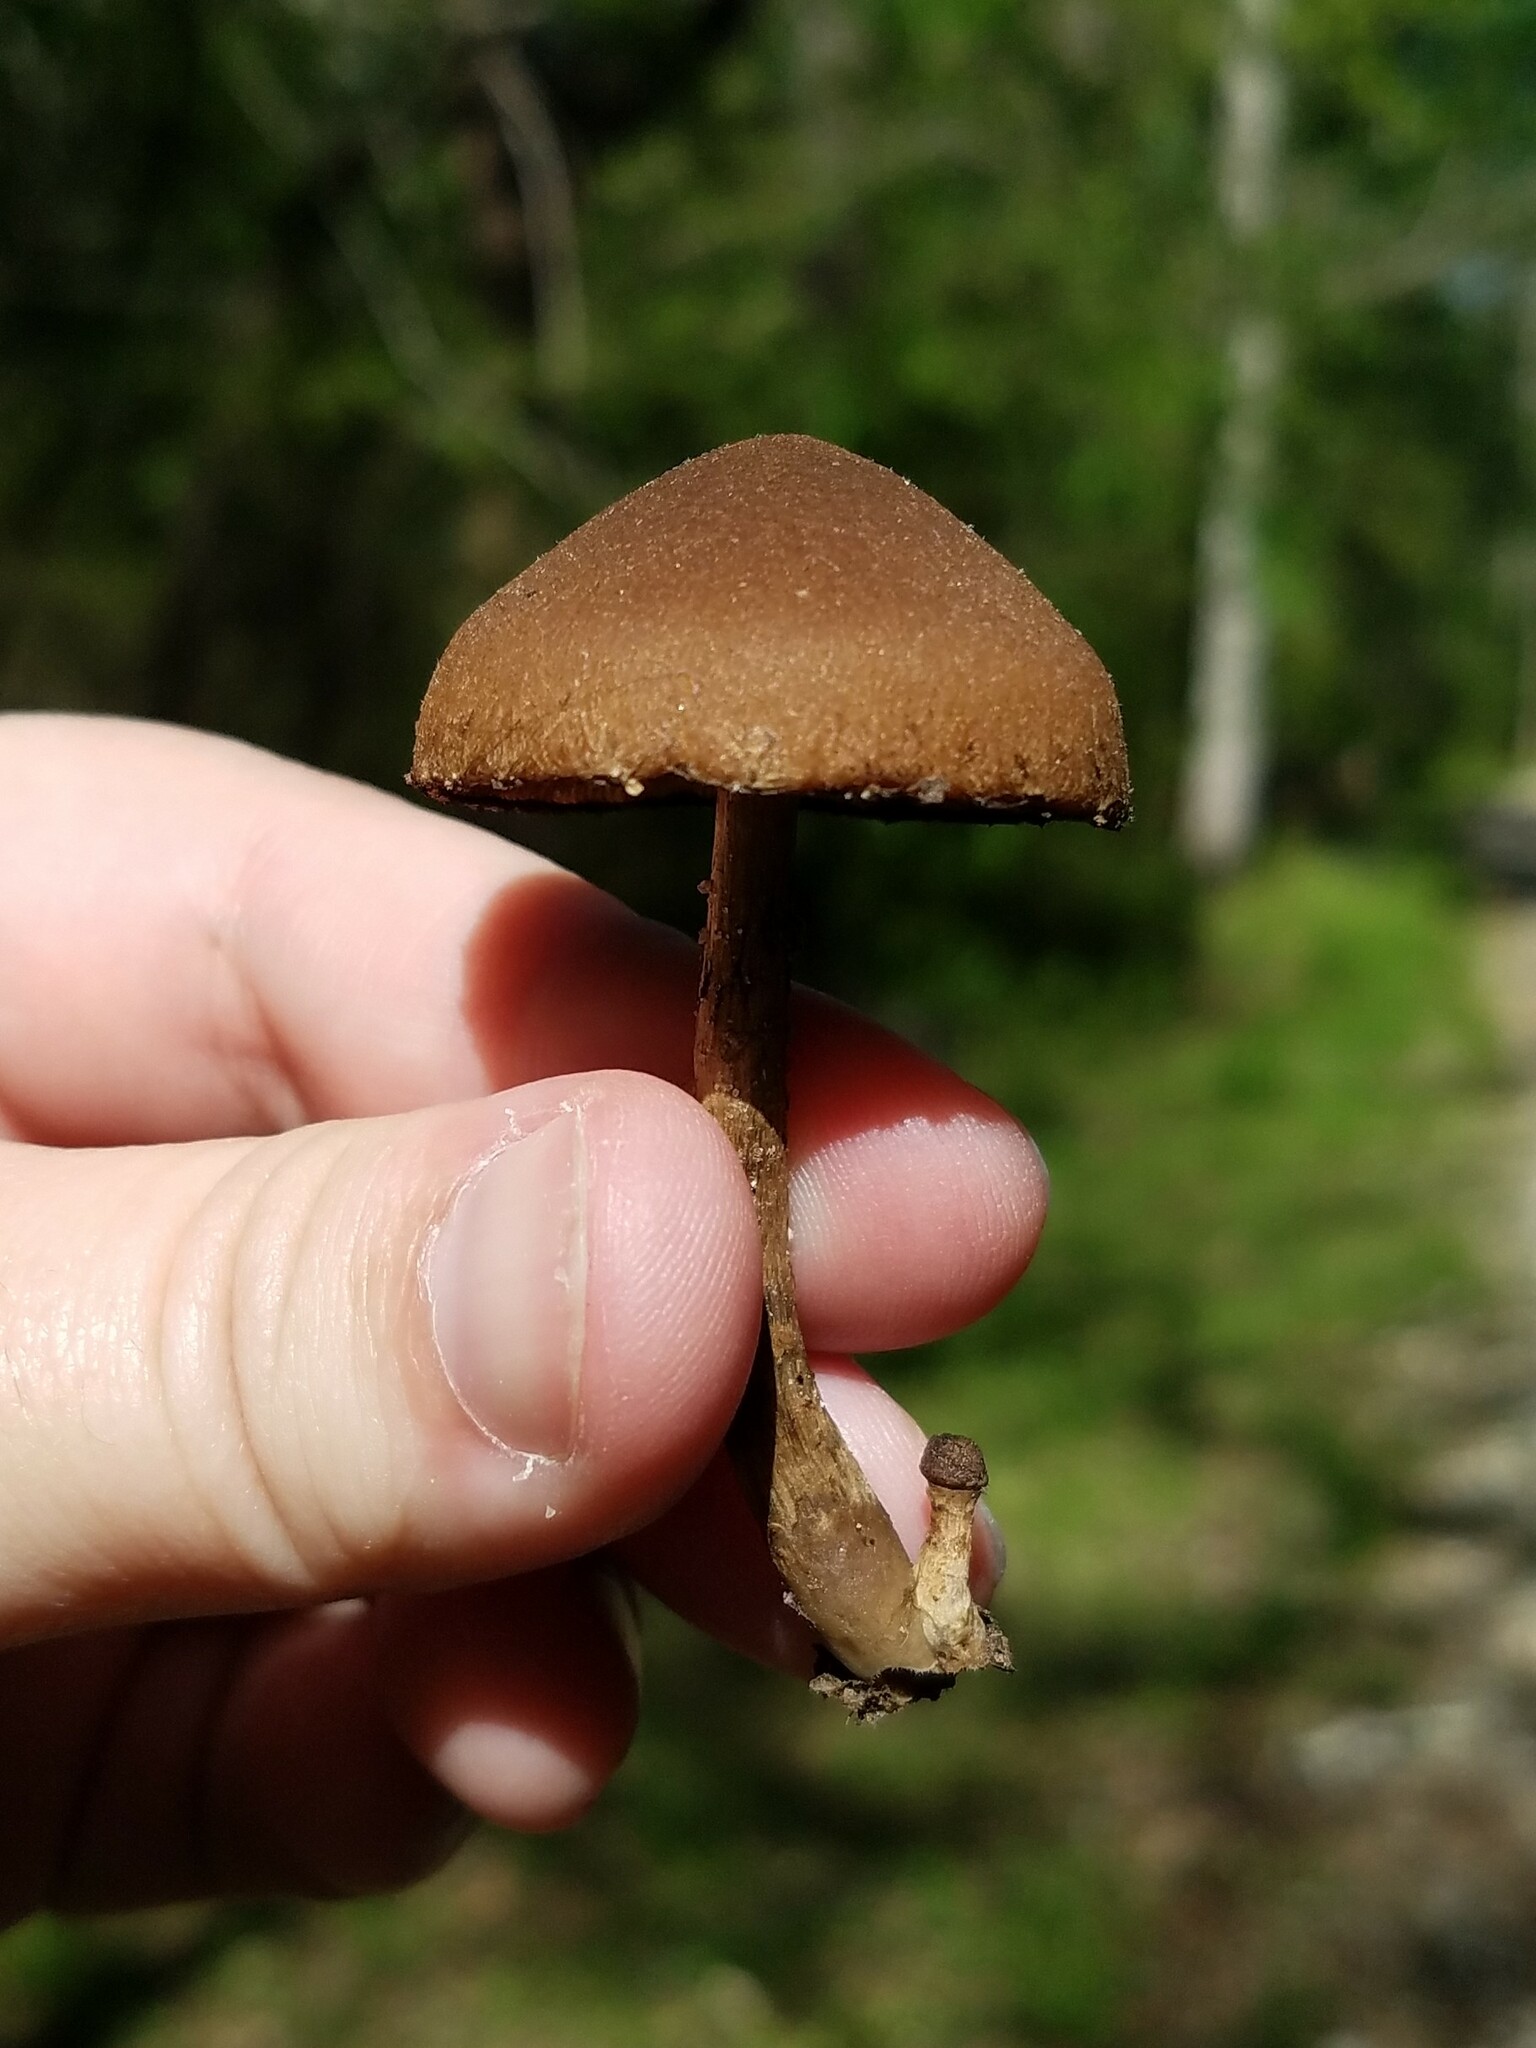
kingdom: Fungi
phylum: Basidiomycota
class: Agaricomycetes
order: Agaricales
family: Psathyrellaceae
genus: Lacrymaria
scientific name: Lacrymaria lacrymabunda
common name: Weeping widow
